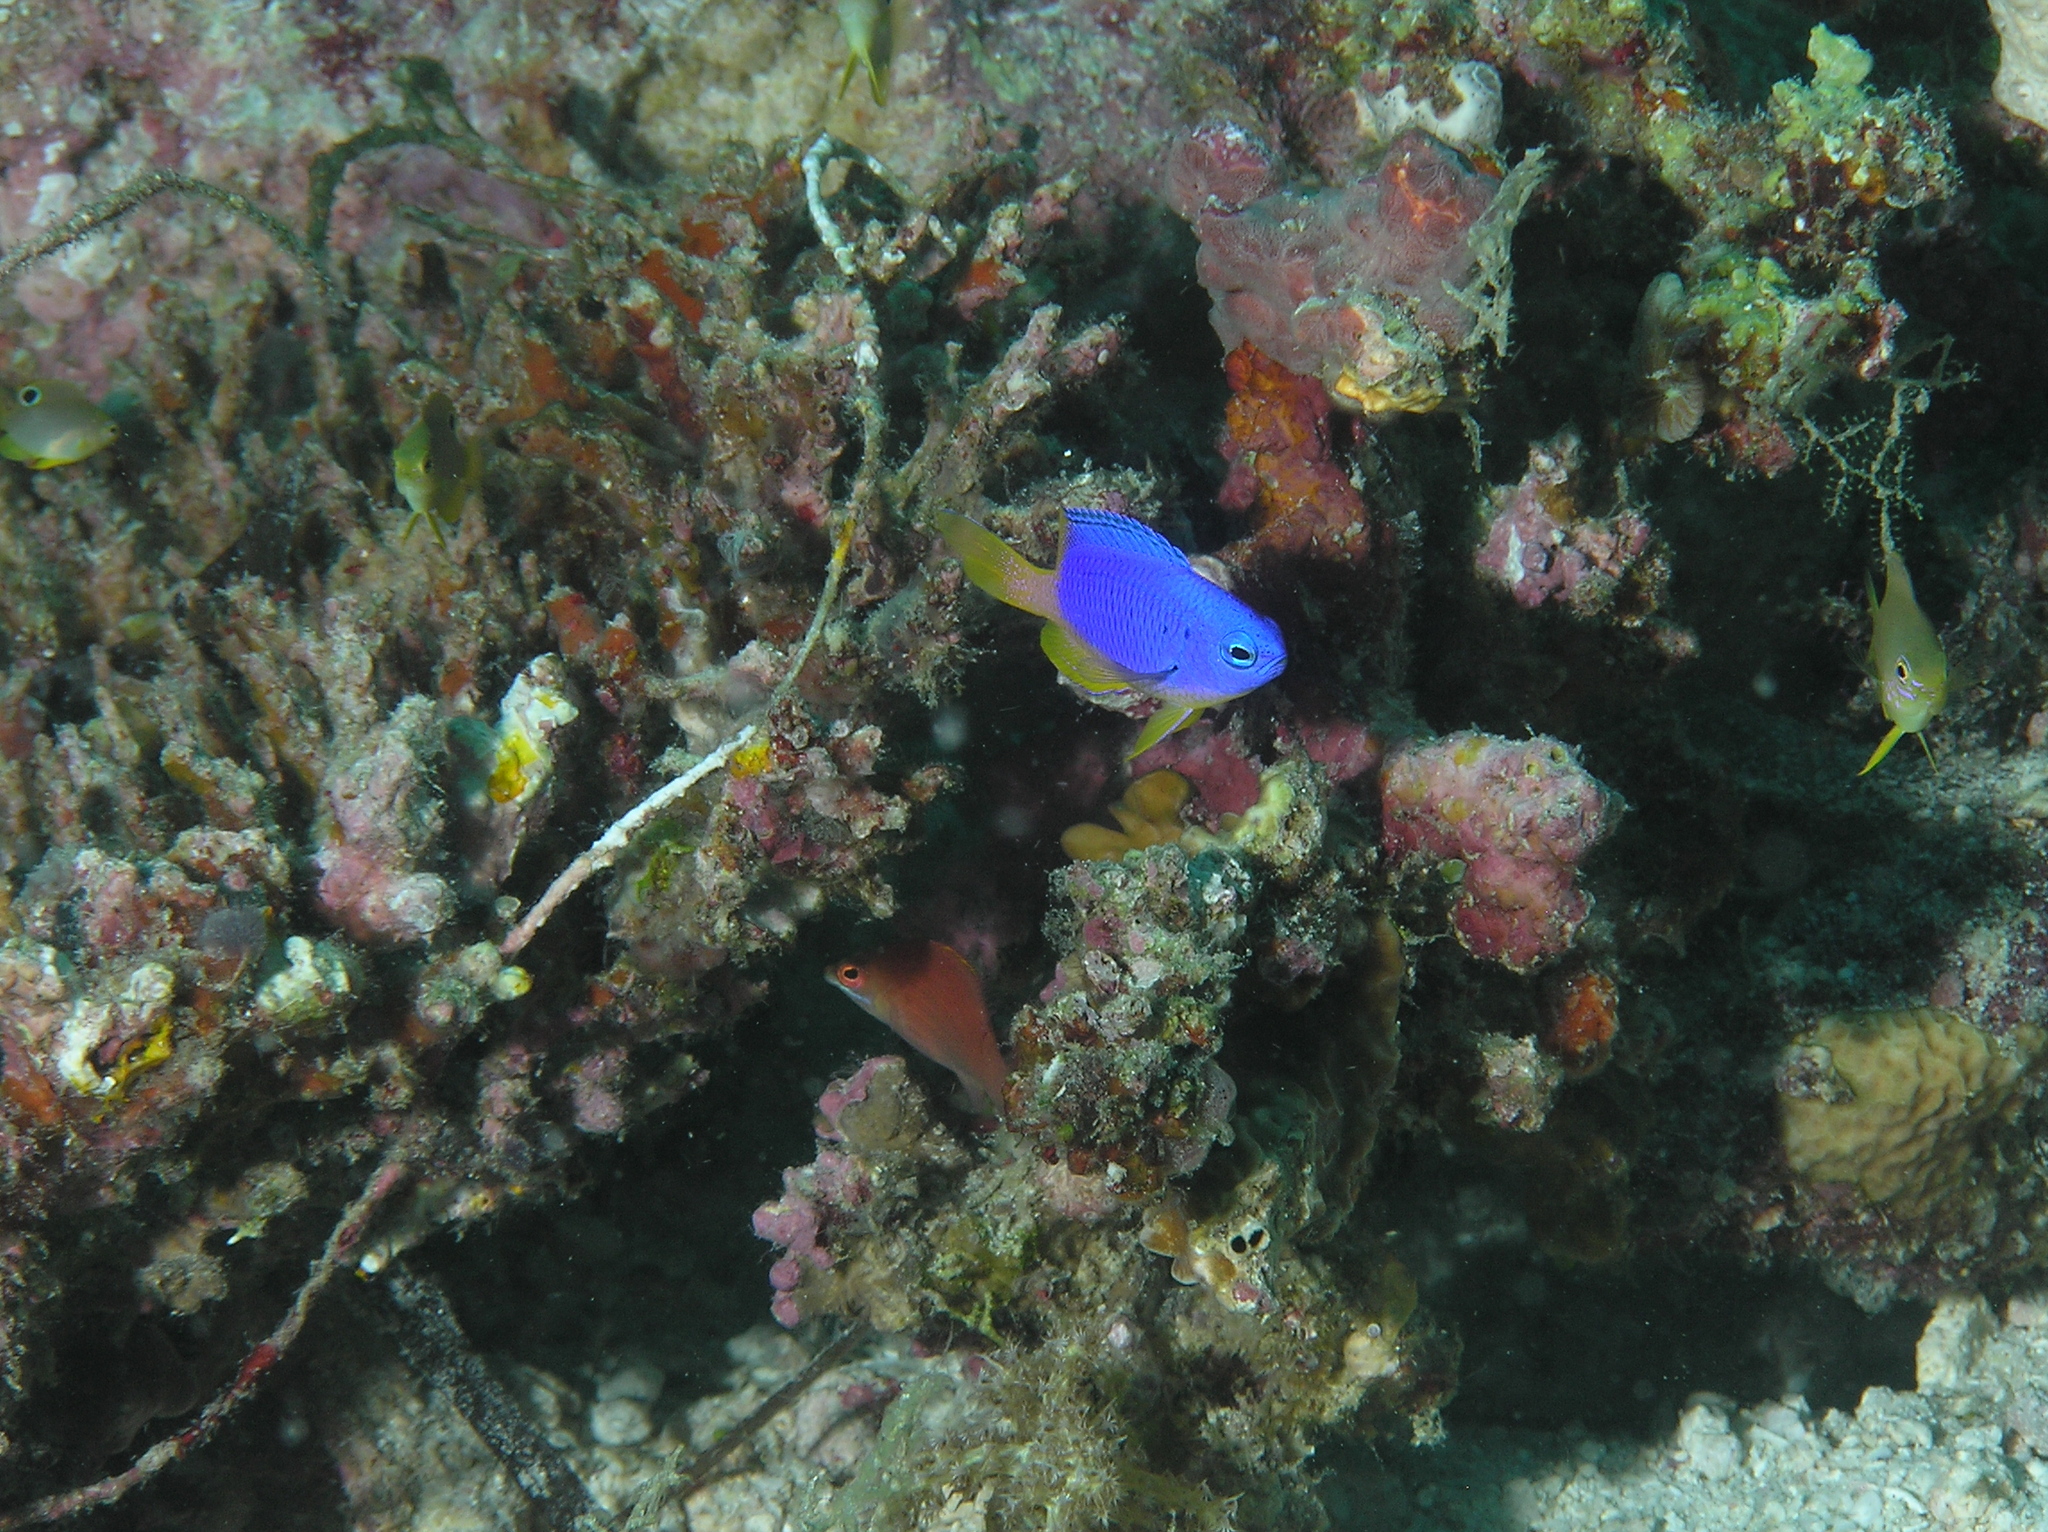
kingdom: Animalia
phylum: Chordata
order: Perciformes
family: Pomacentridae
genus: Pomacentrus
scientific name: Pomacentrus coelestis
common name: Neon damsel
